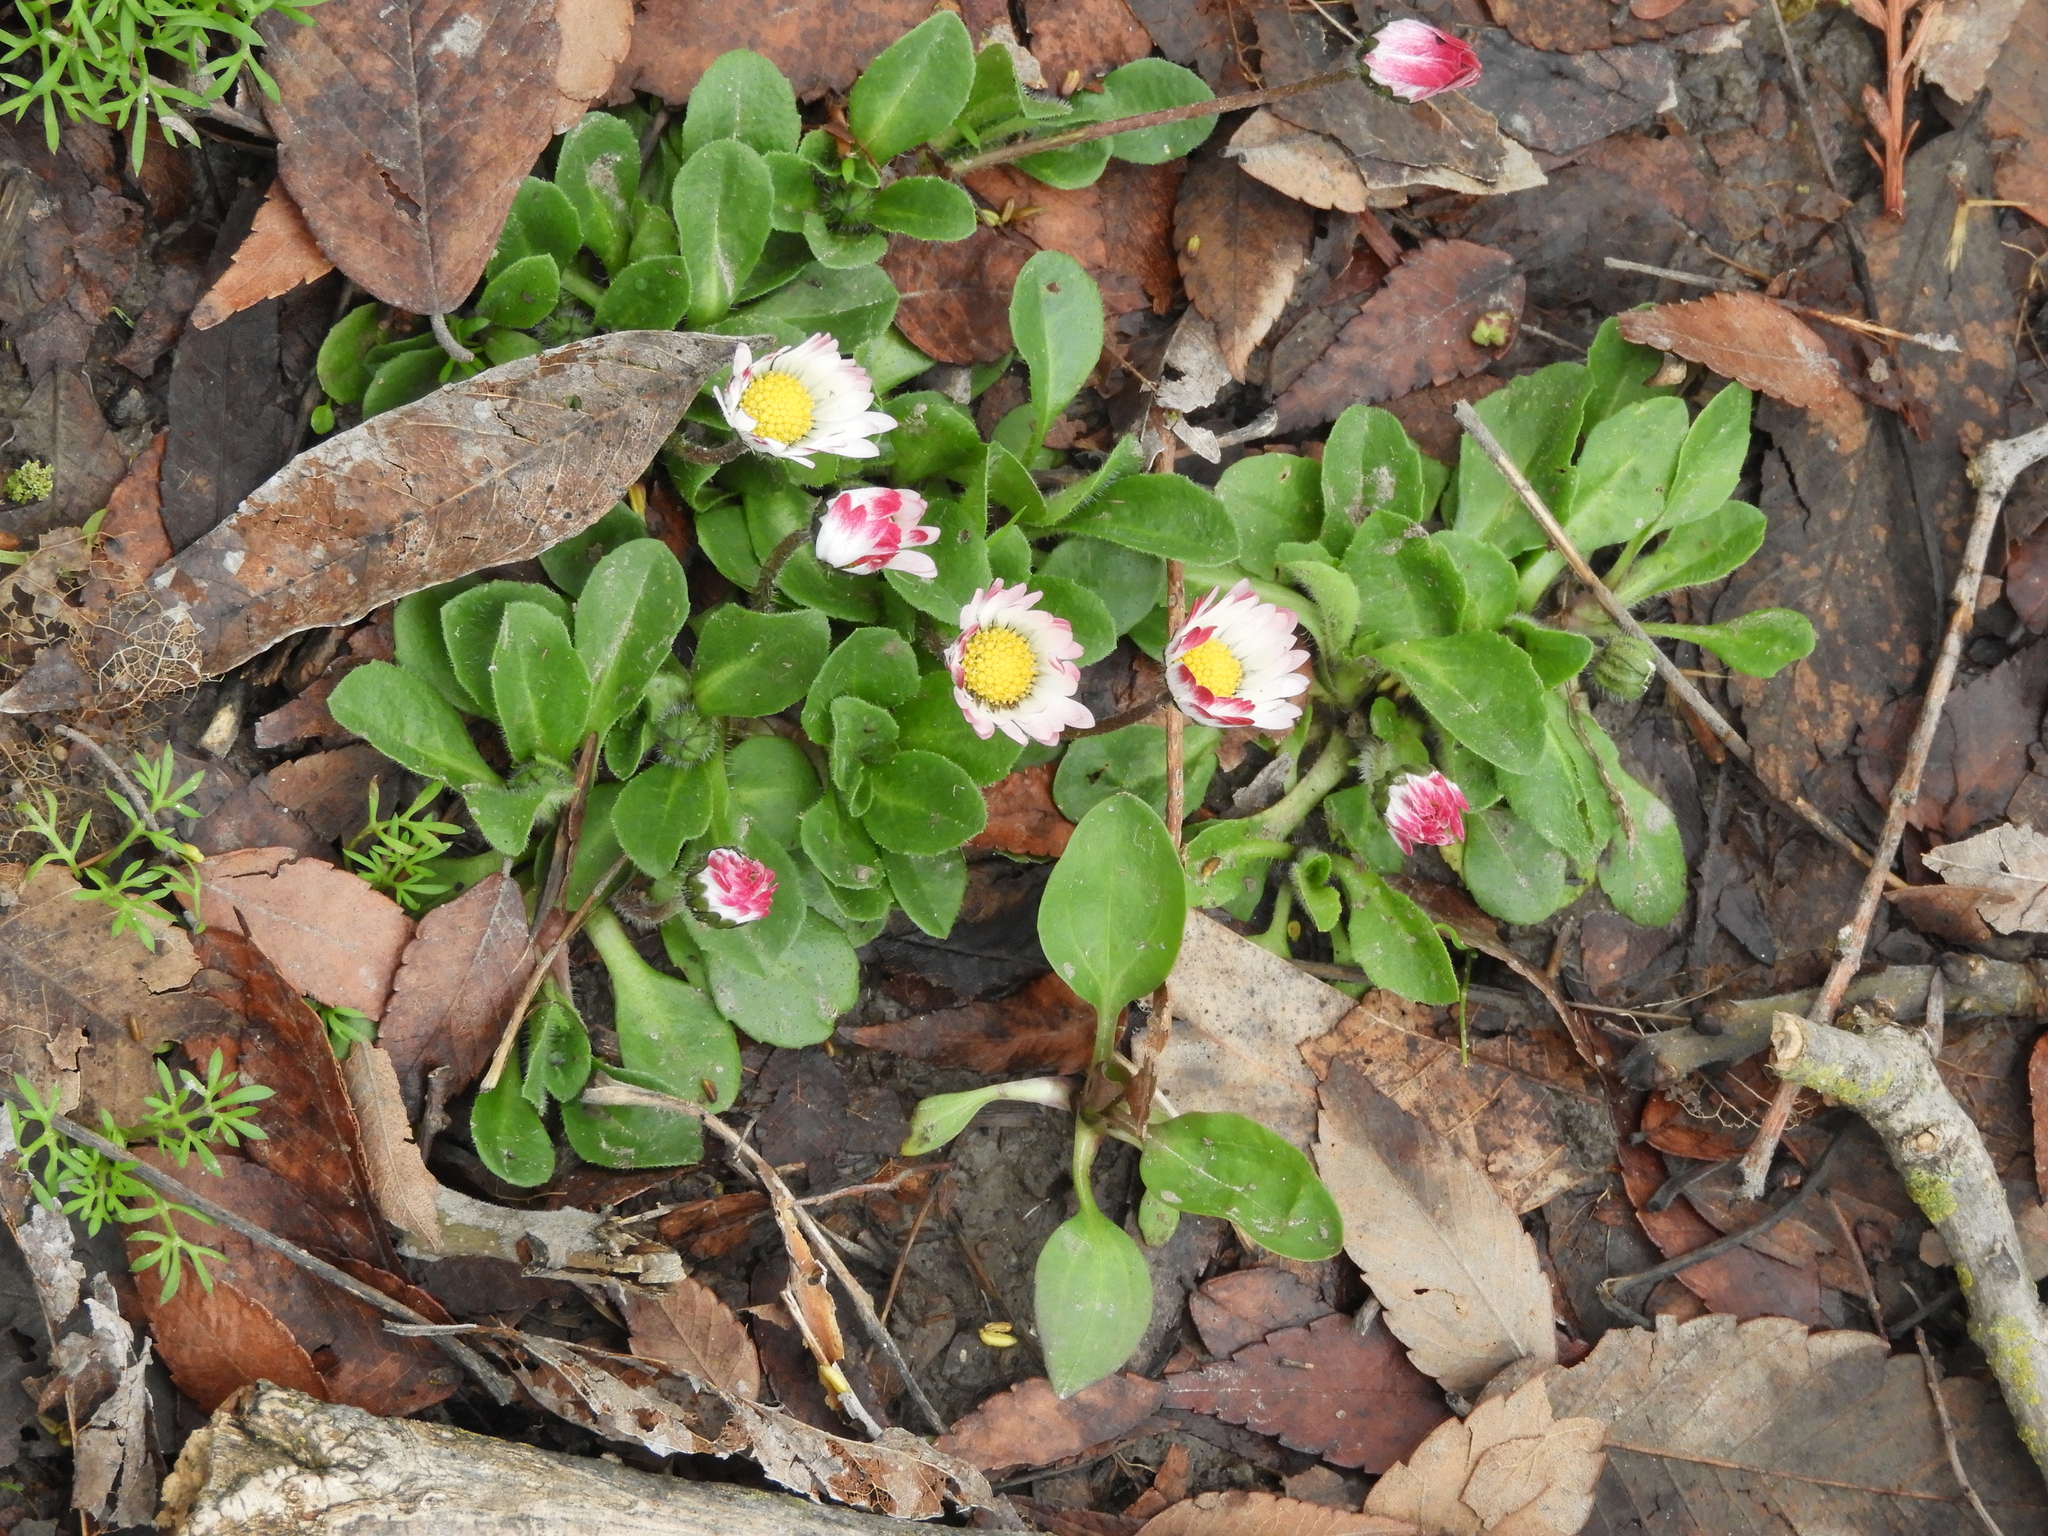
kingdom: Plantae
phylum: Tracheophyta
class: Magnoliopsida
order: Asterales
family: Asteraceae
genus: Bellis
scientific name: Bellis perennis
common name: Lawndaisy
